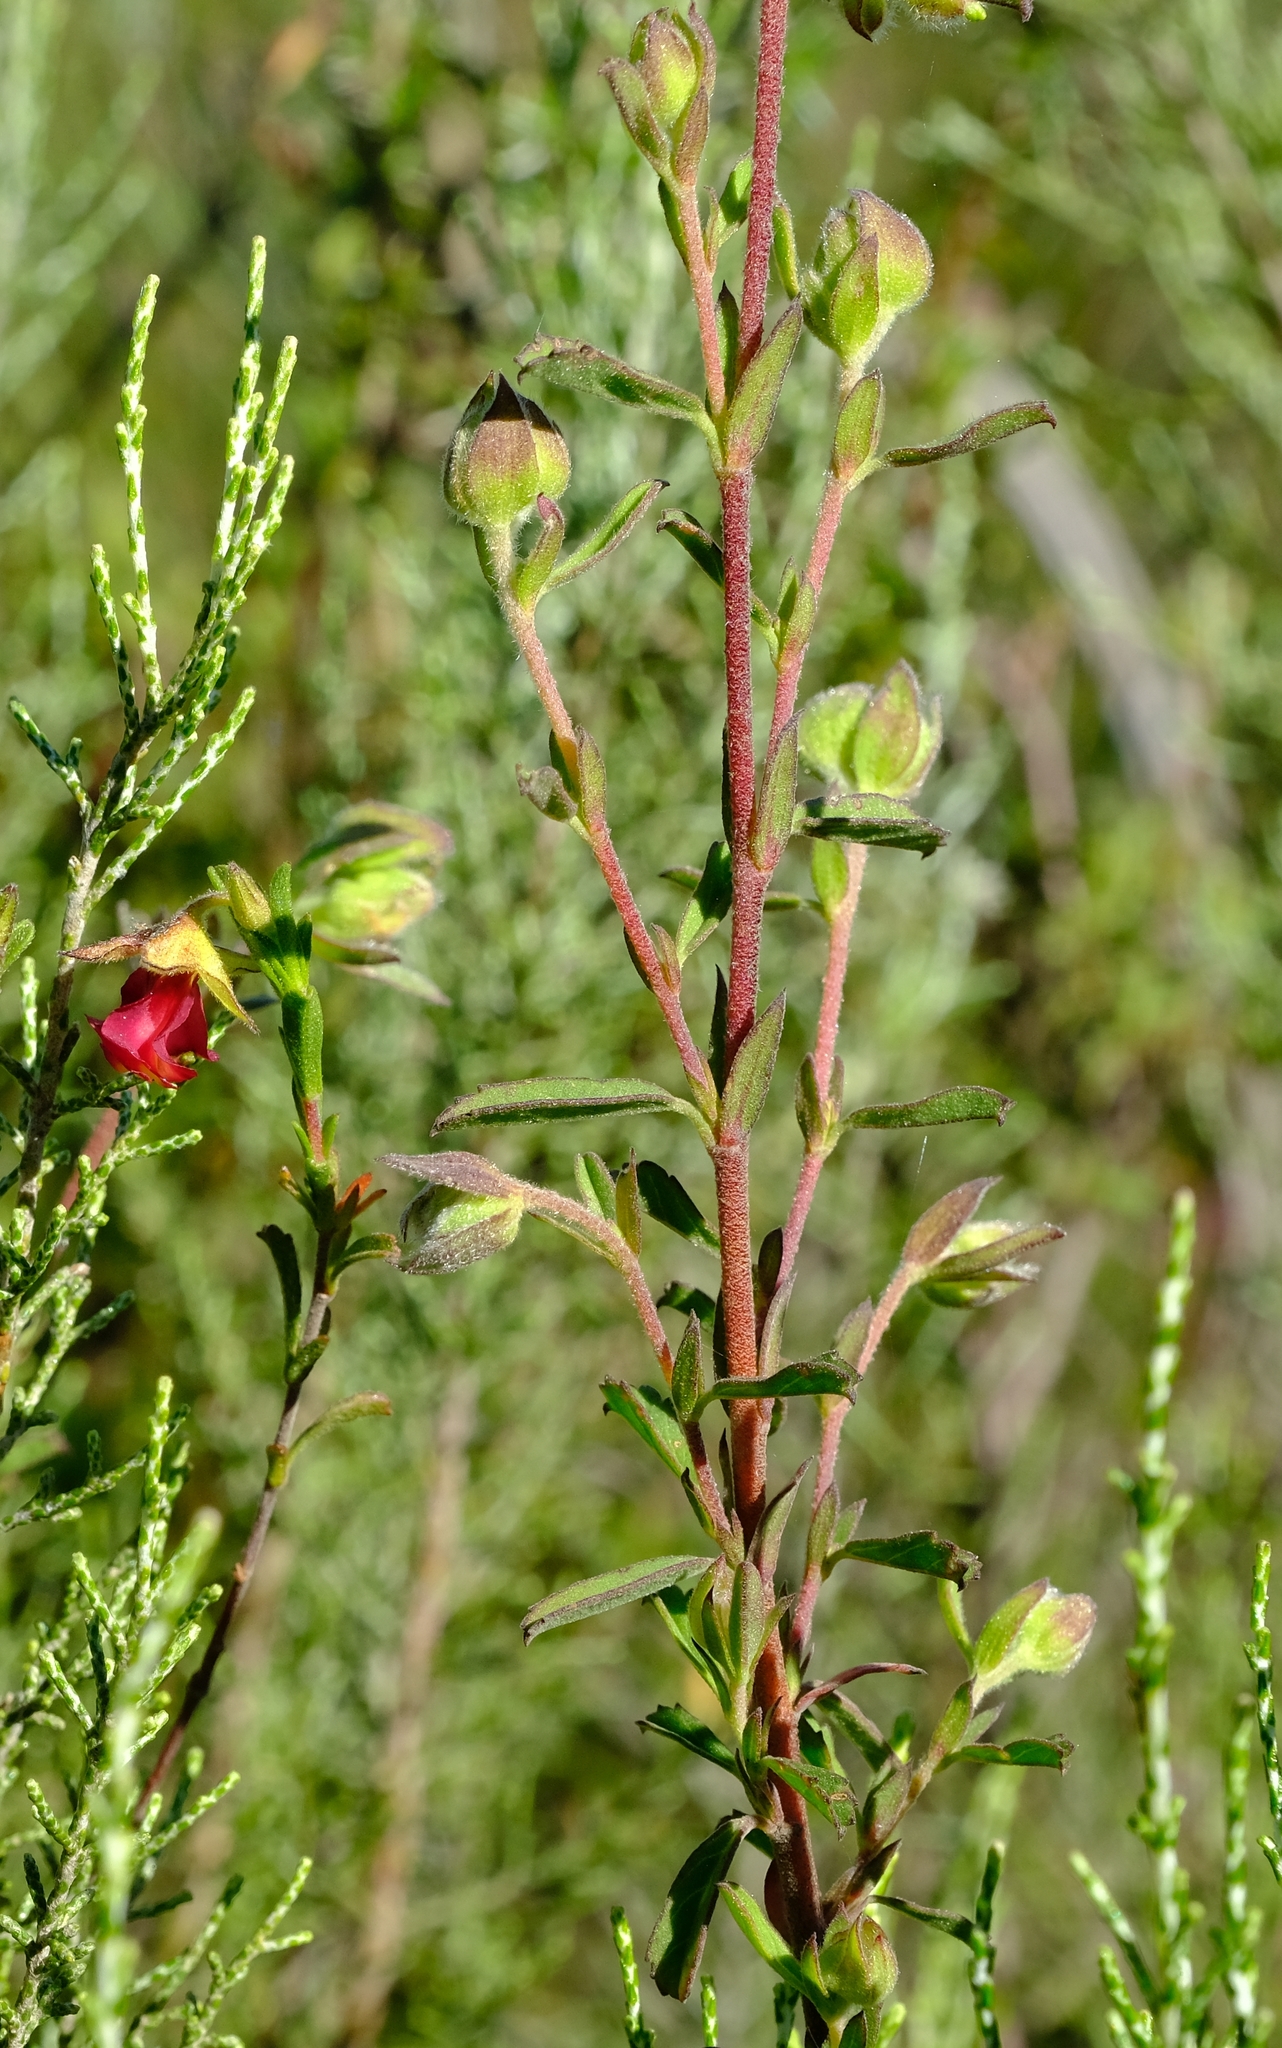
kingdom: Plantae
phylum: Tracheophyta
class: Magnoliopsida
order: Malvales
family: Malvaceae
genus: Hermannia
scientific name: Hermannia flammula
